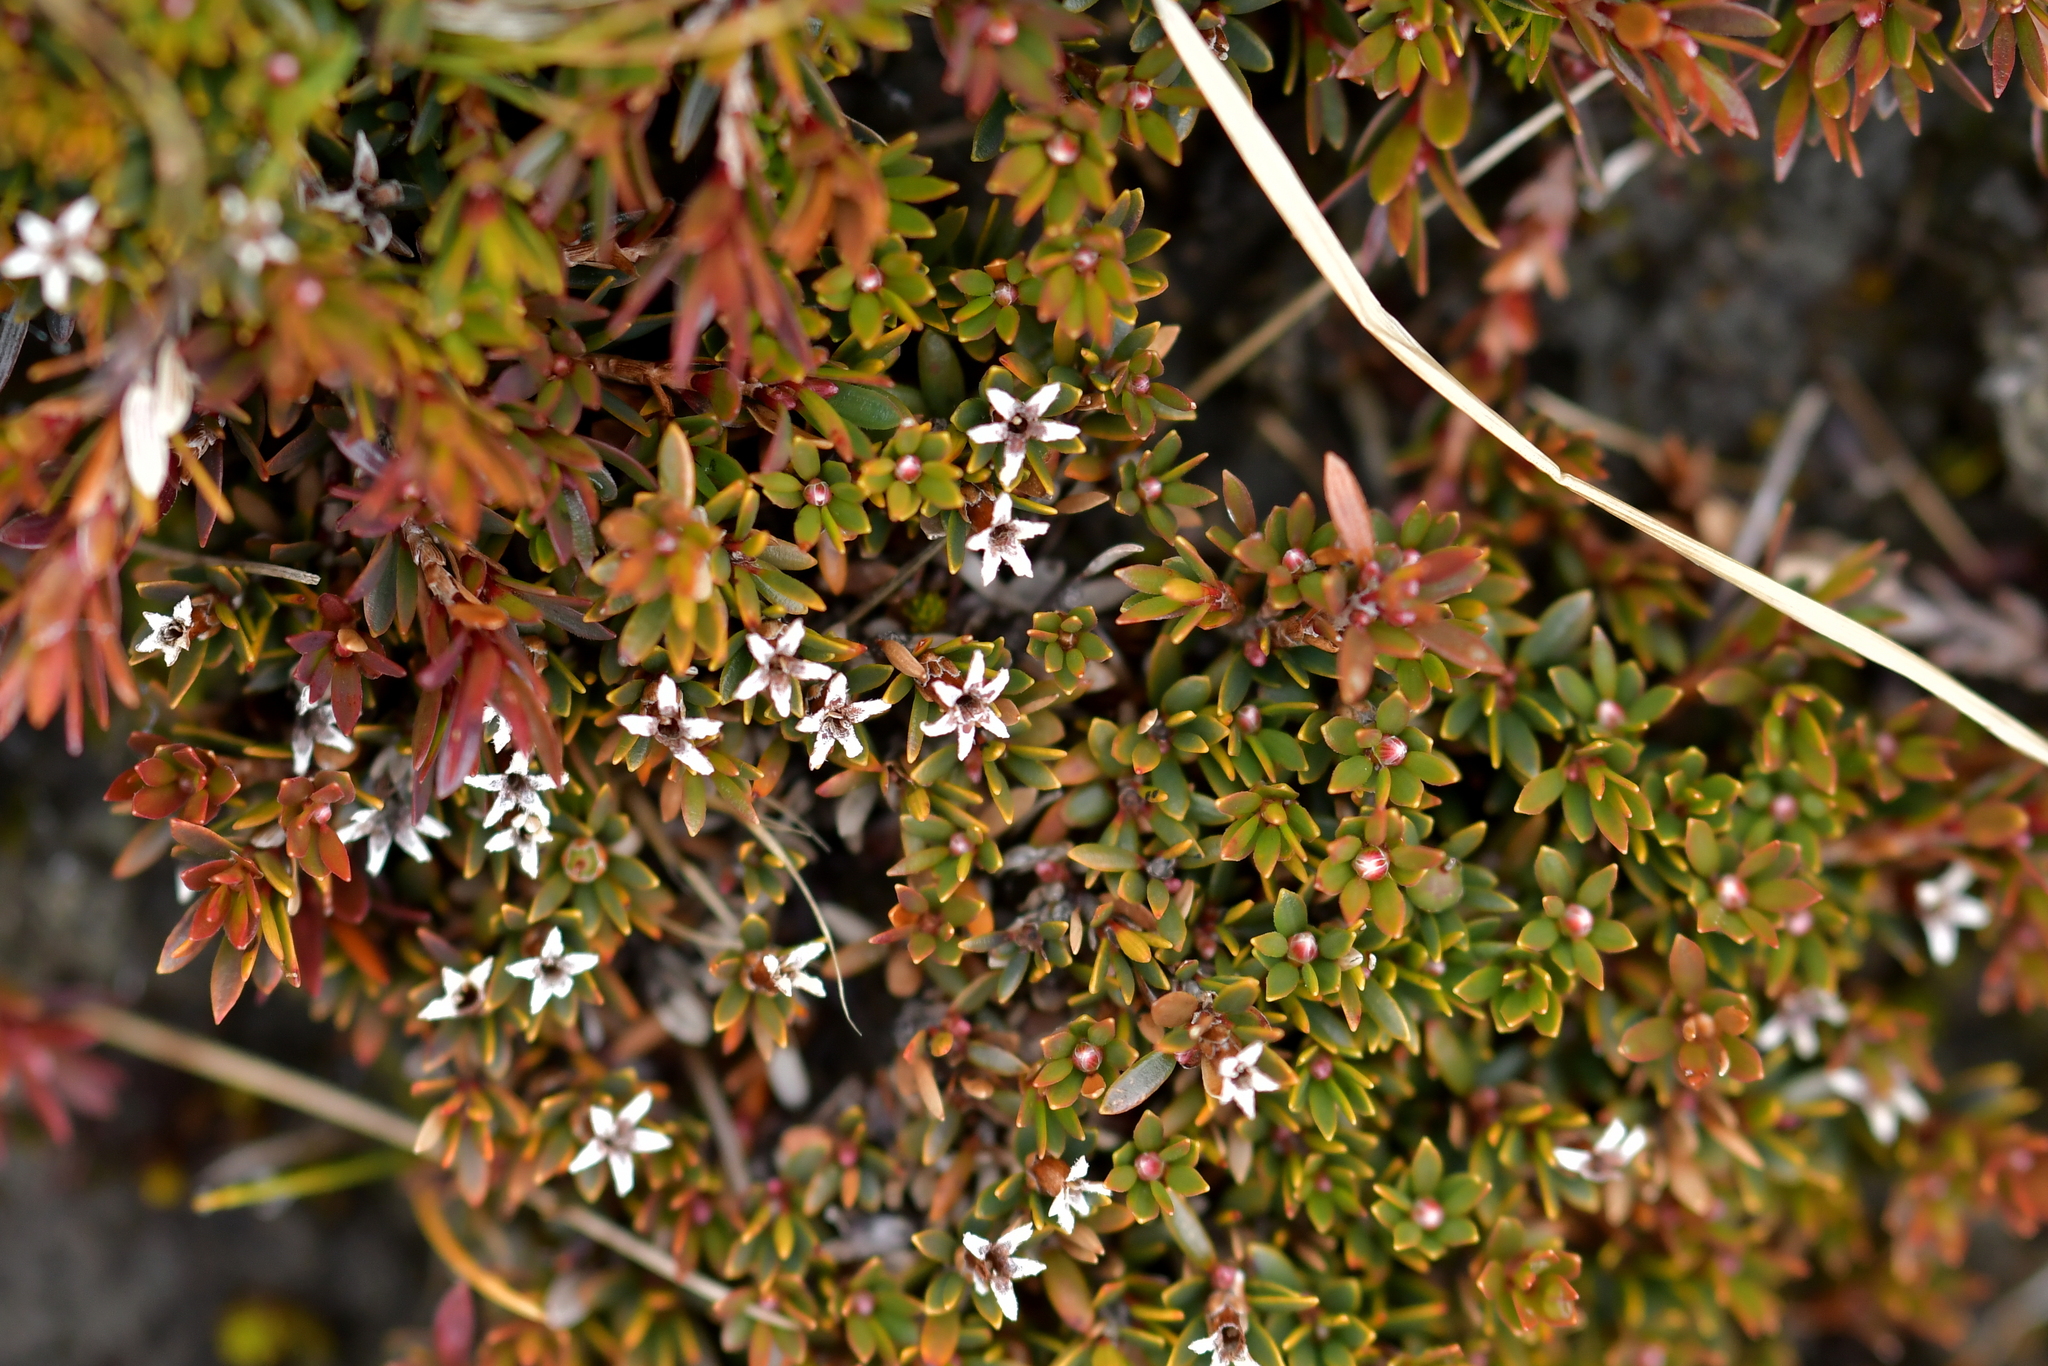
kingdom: Plantae
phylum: Tracheophyta
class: Magnoliopsida
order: Ericales
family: Ericaceae
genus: Pentachondra
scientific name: Pentachondra pumila
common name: Carpet-heath
